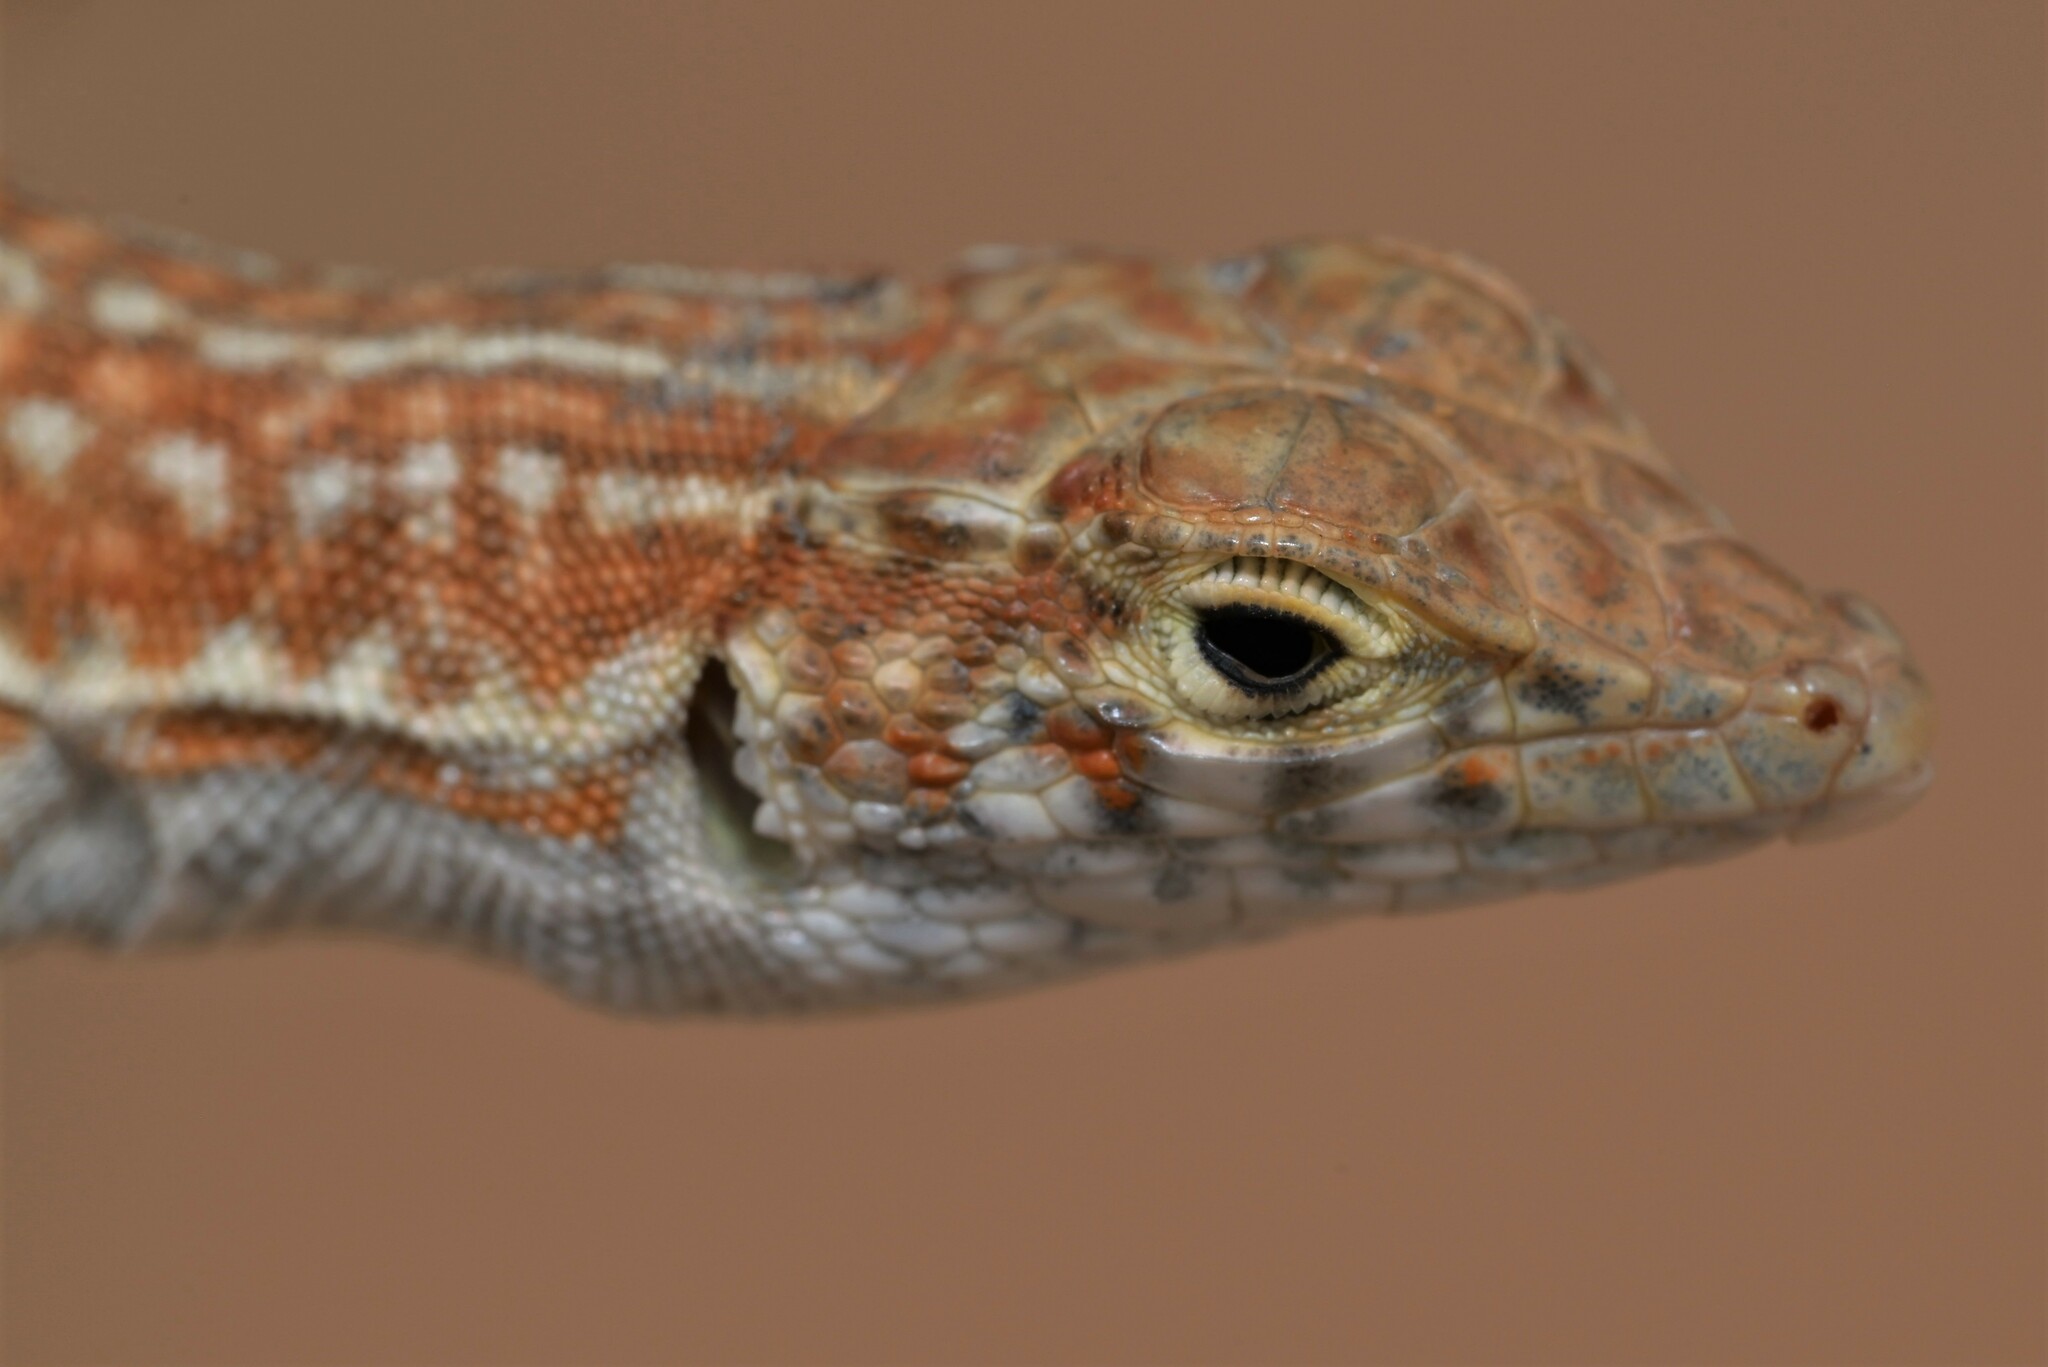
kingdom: Animalia
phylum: Chordata
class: Squamata
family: Lacertidae
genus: Acanthodactylus
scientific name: Acanthodactylus opheodurus
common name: Arnold's fringe-fingered lizard
